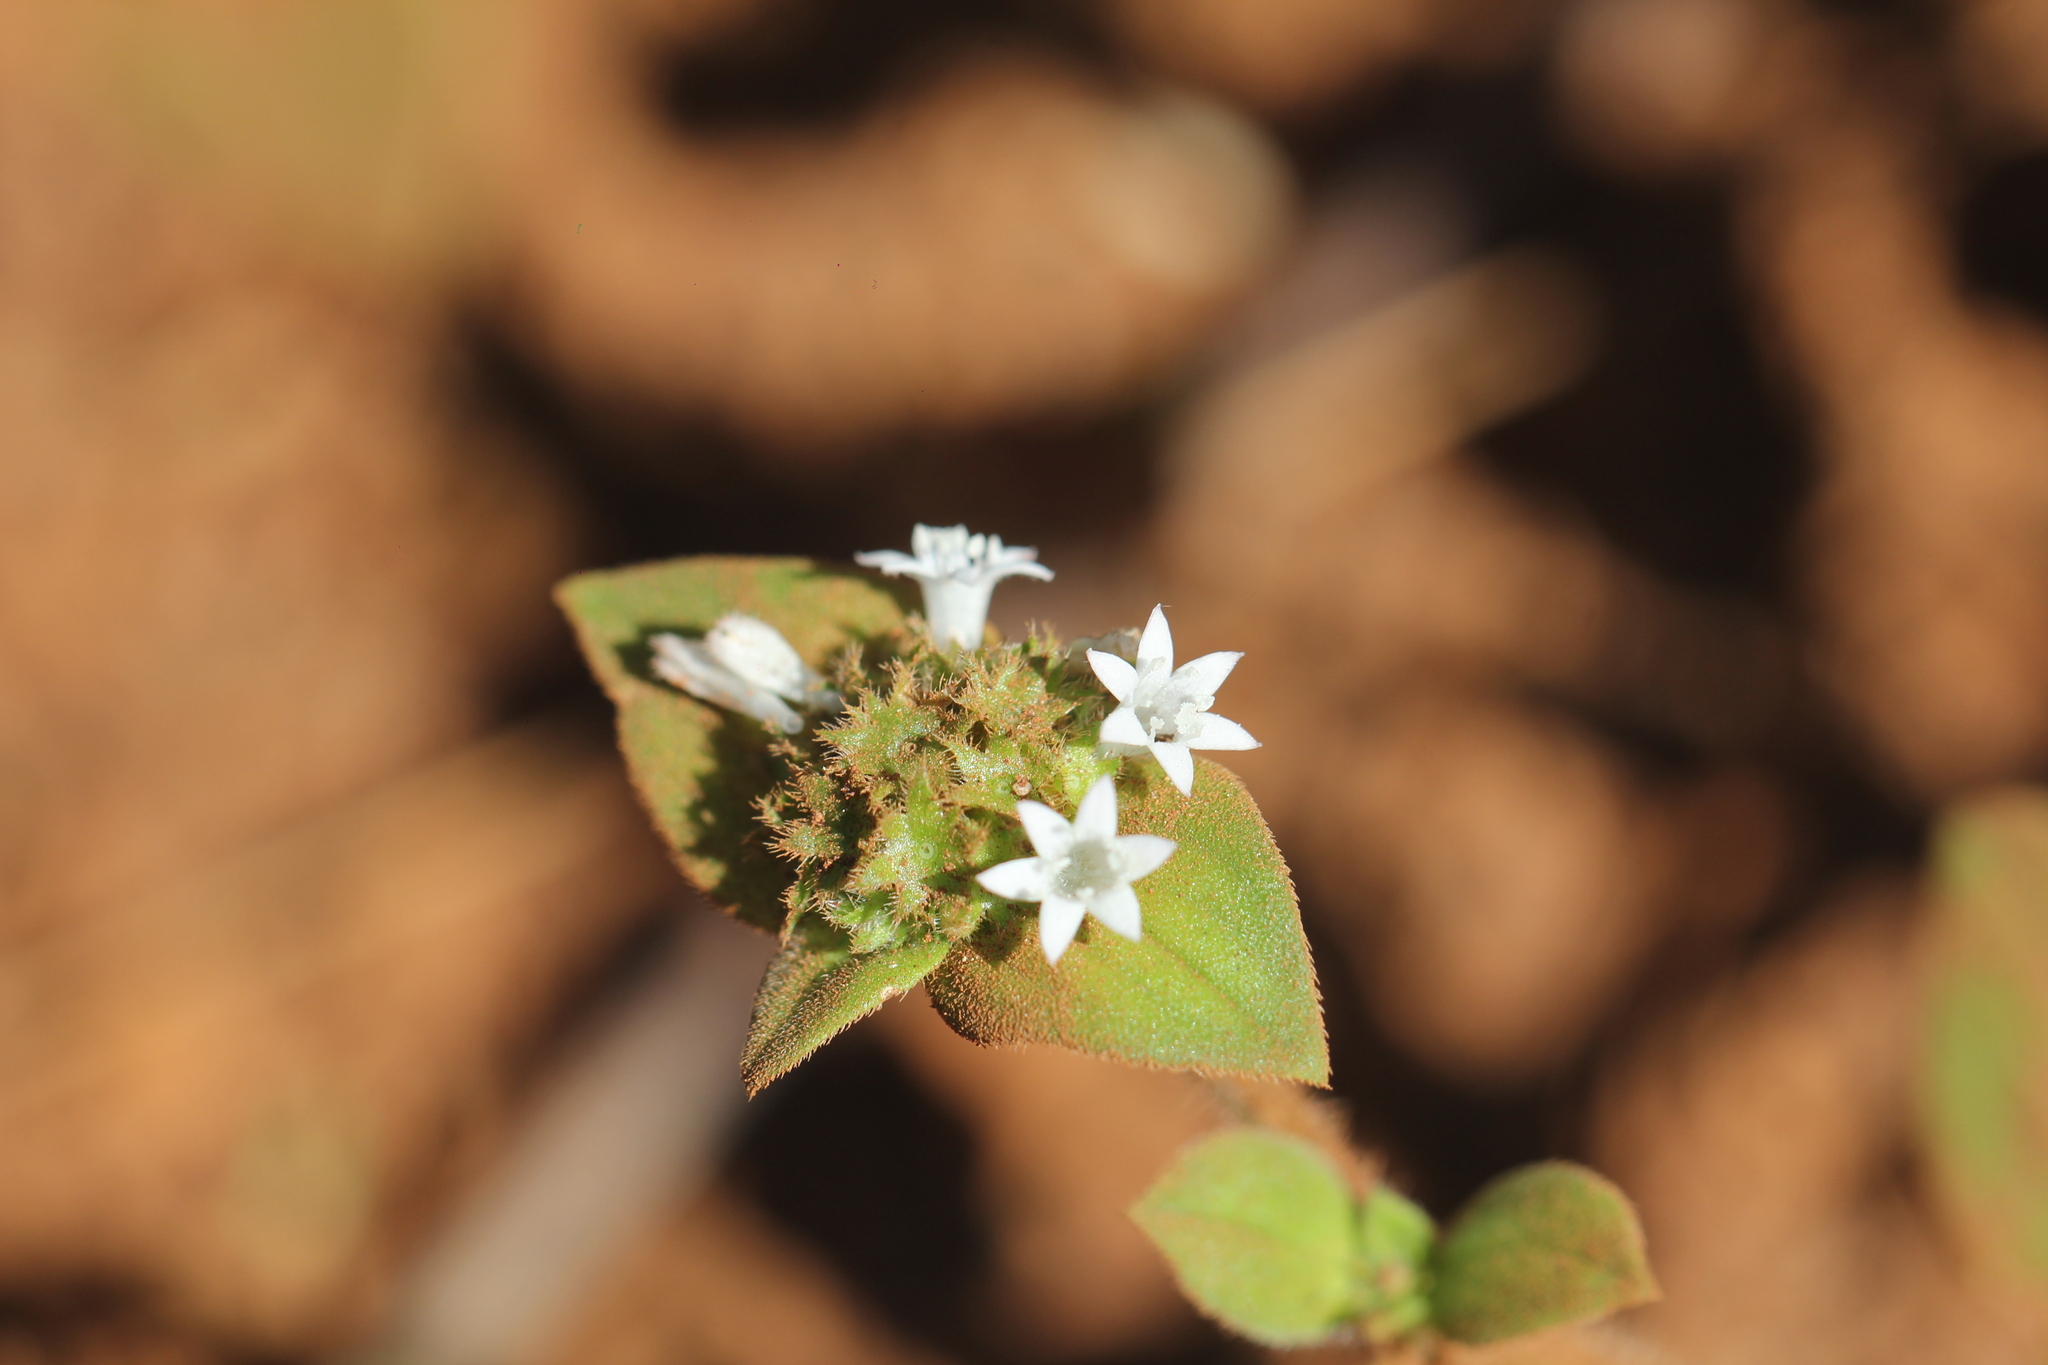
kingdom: Plantae
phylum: Tracheophyta
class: Magnoliopsida
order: Gentianales
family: Rubiaceae
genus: Richardia
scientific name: Richardia brasiliensis
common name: Tropical mexican clover
